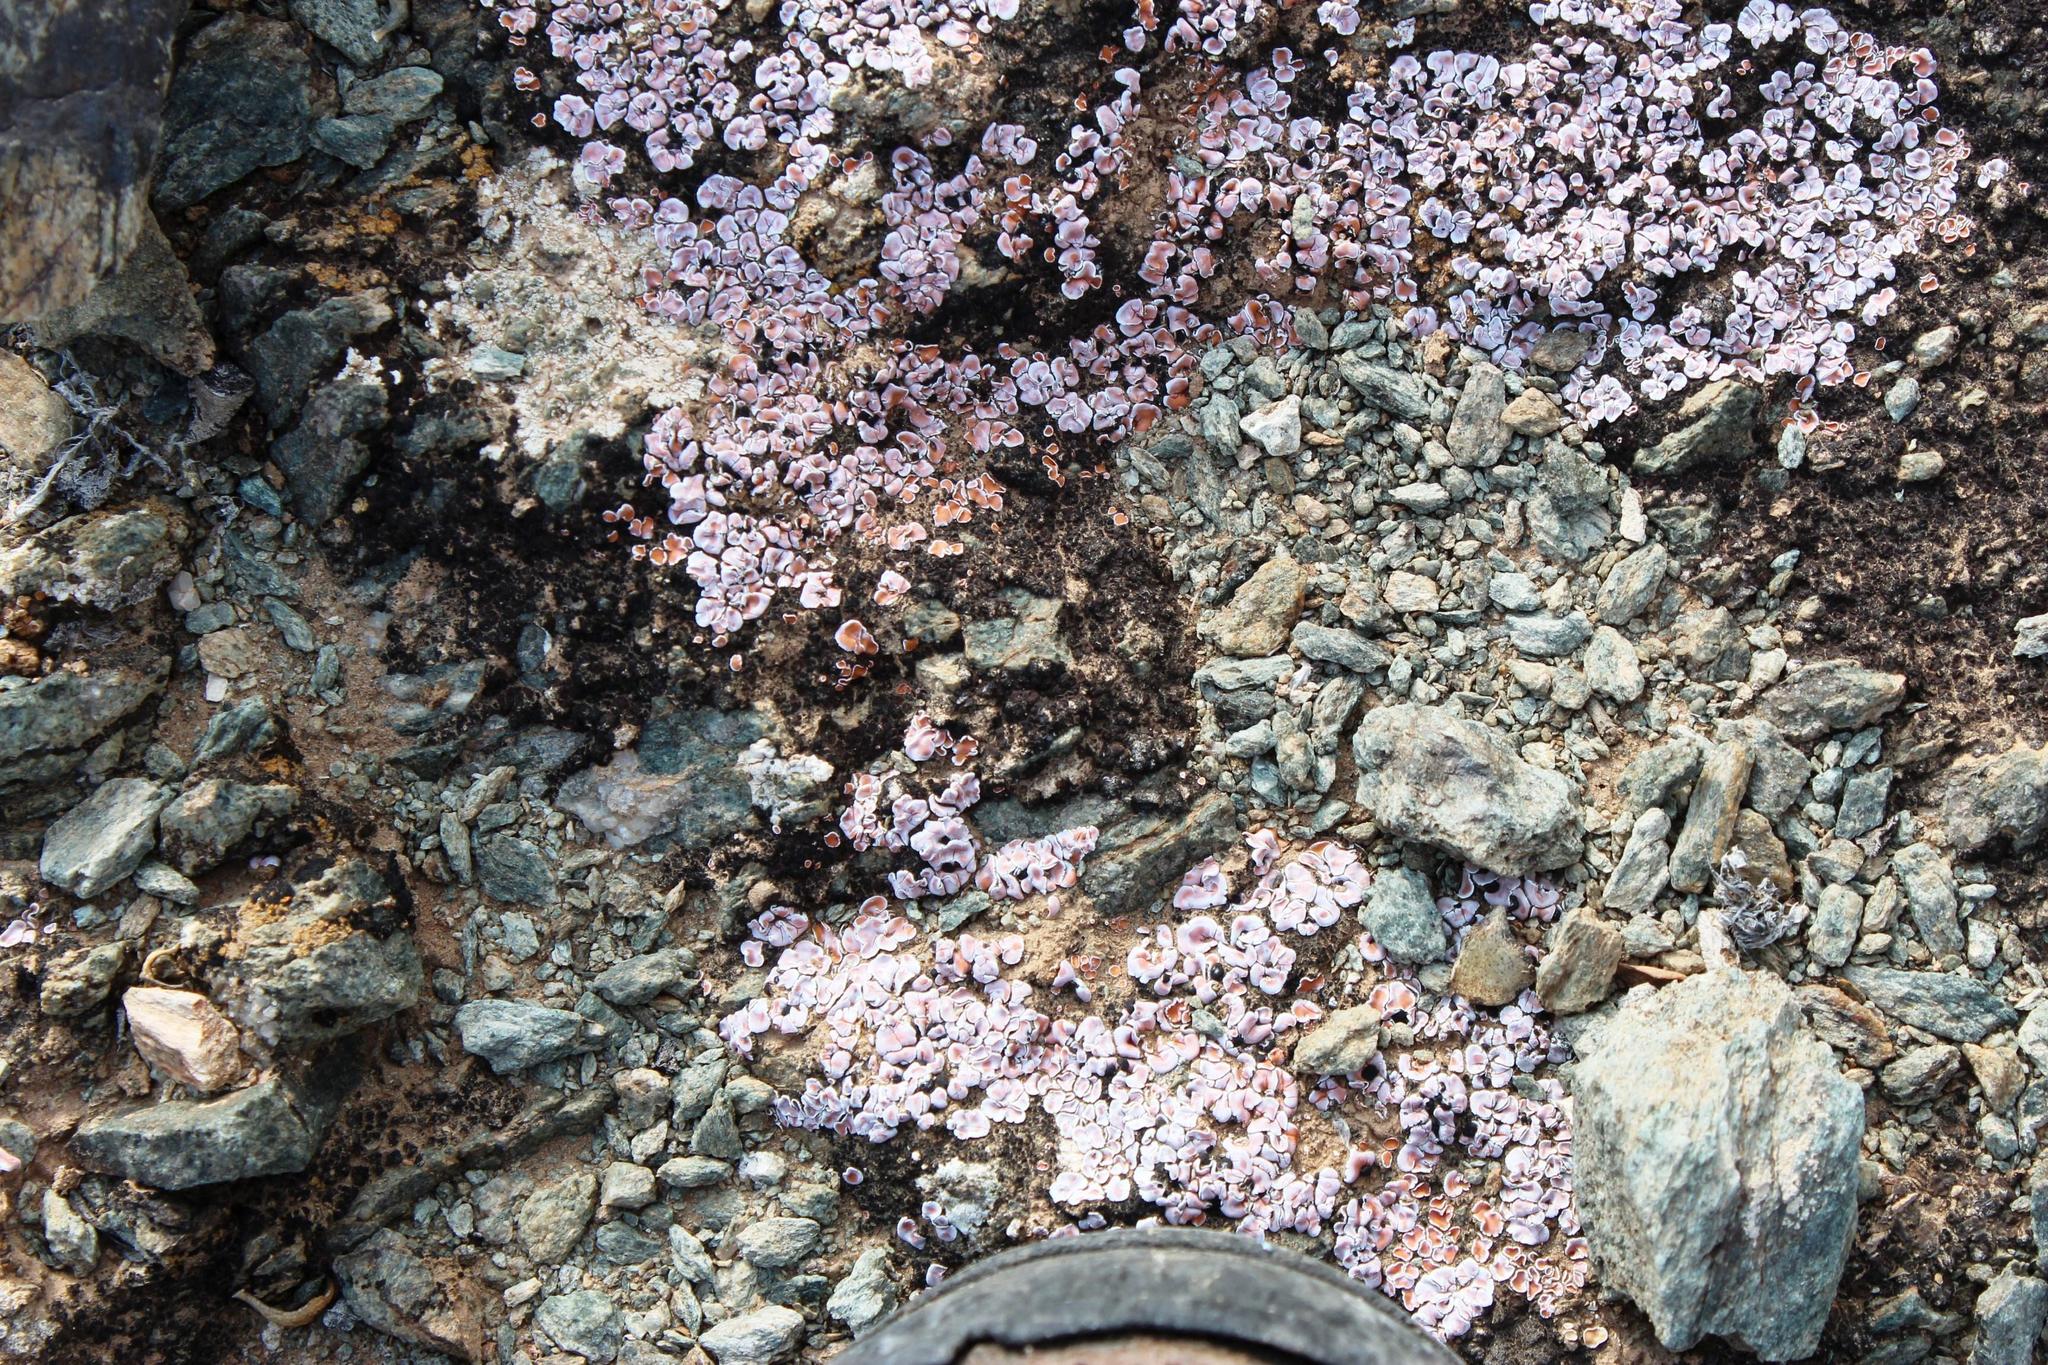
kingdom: Fungi
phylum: Ascomycota
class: Lecanoromycetes
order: Lecanorales
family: Psoraceae
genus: Psora
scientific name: Psora crenata
